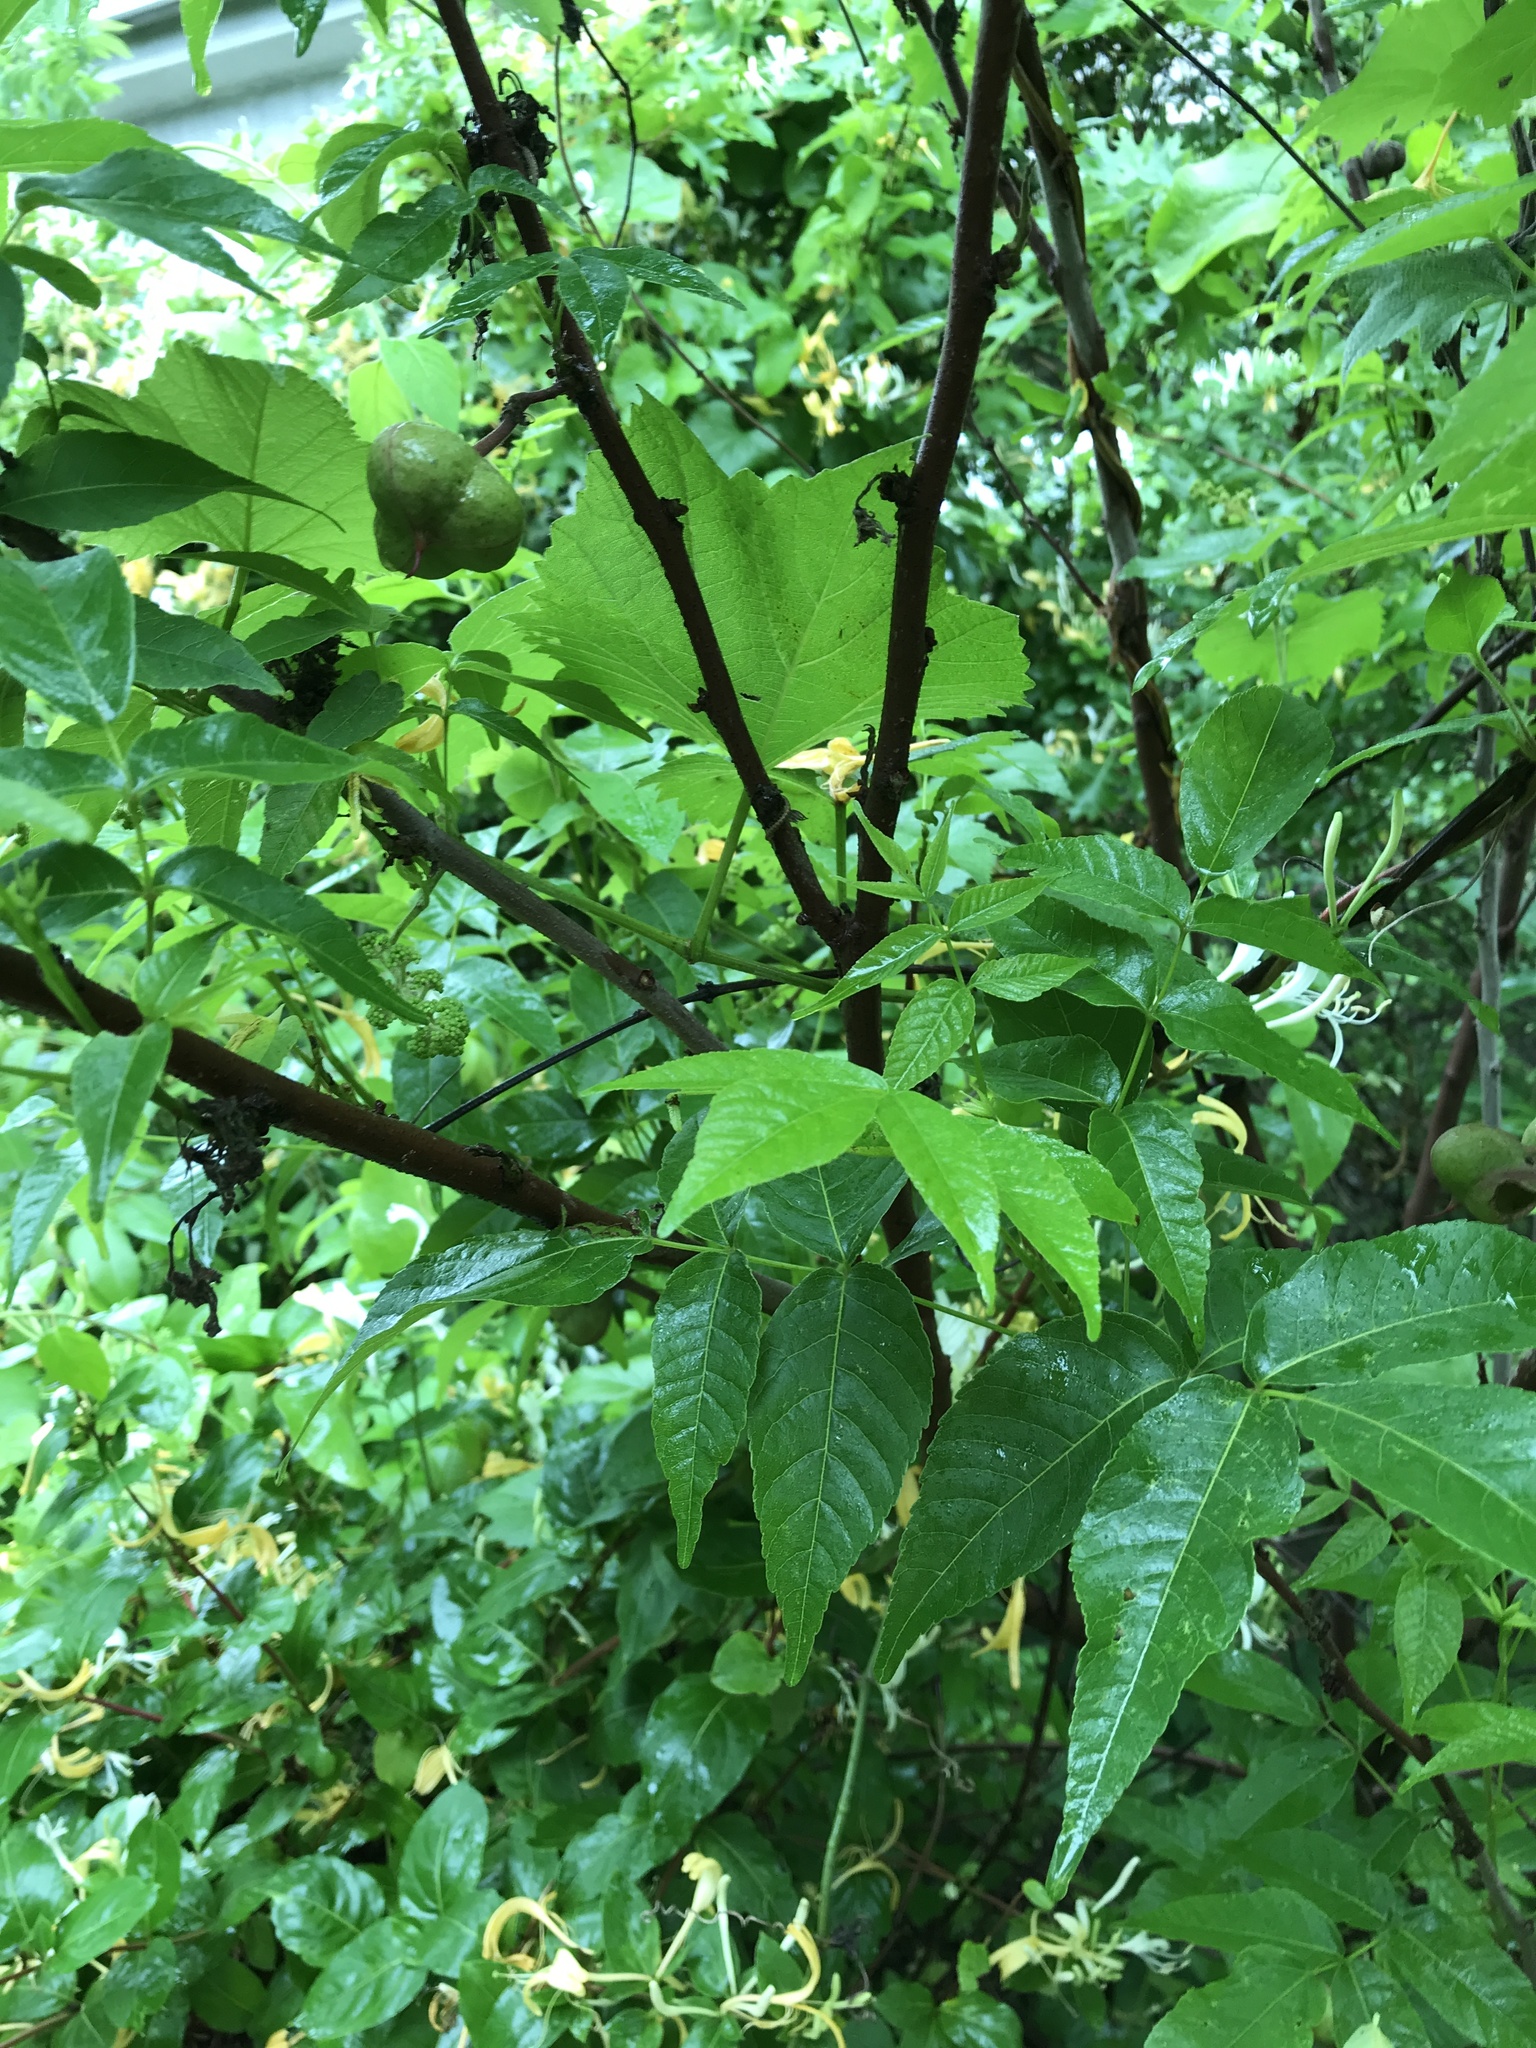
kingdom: Plantae
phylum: Tracheophyta
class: Magnoliopsida
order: Sapindales
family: Sapindaceae
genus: Ungnadia
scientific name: Ungnadia speciosa
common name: Texas-buckeye
